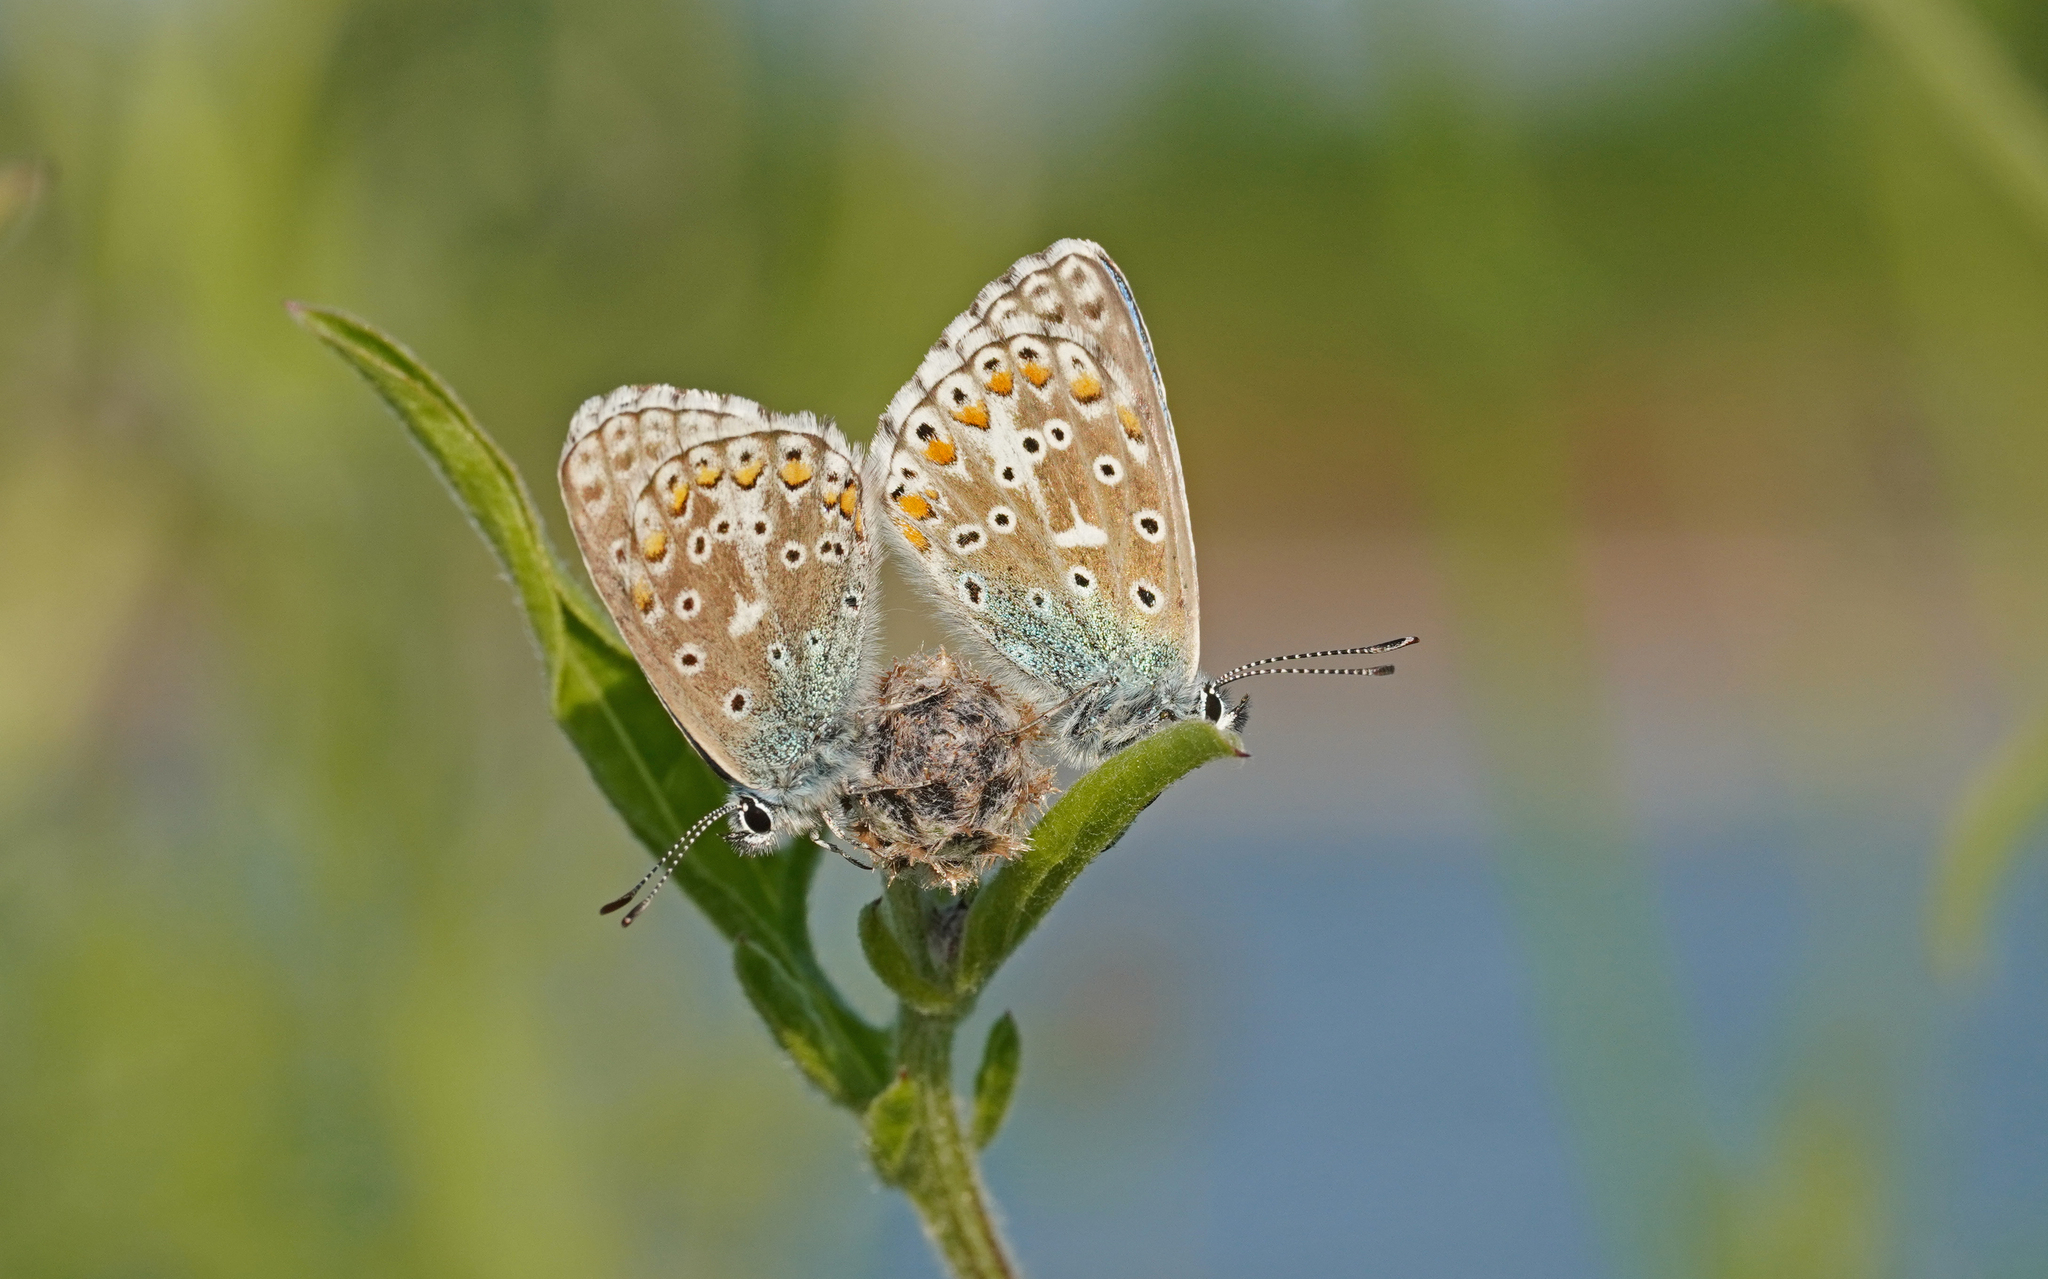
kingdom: Animalia
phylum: Arthropoda
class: Insecta
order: Lepidoptera
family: Lycaenidae
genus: Lysandra
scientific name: Lysandra bellargus
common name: Adonis blue
